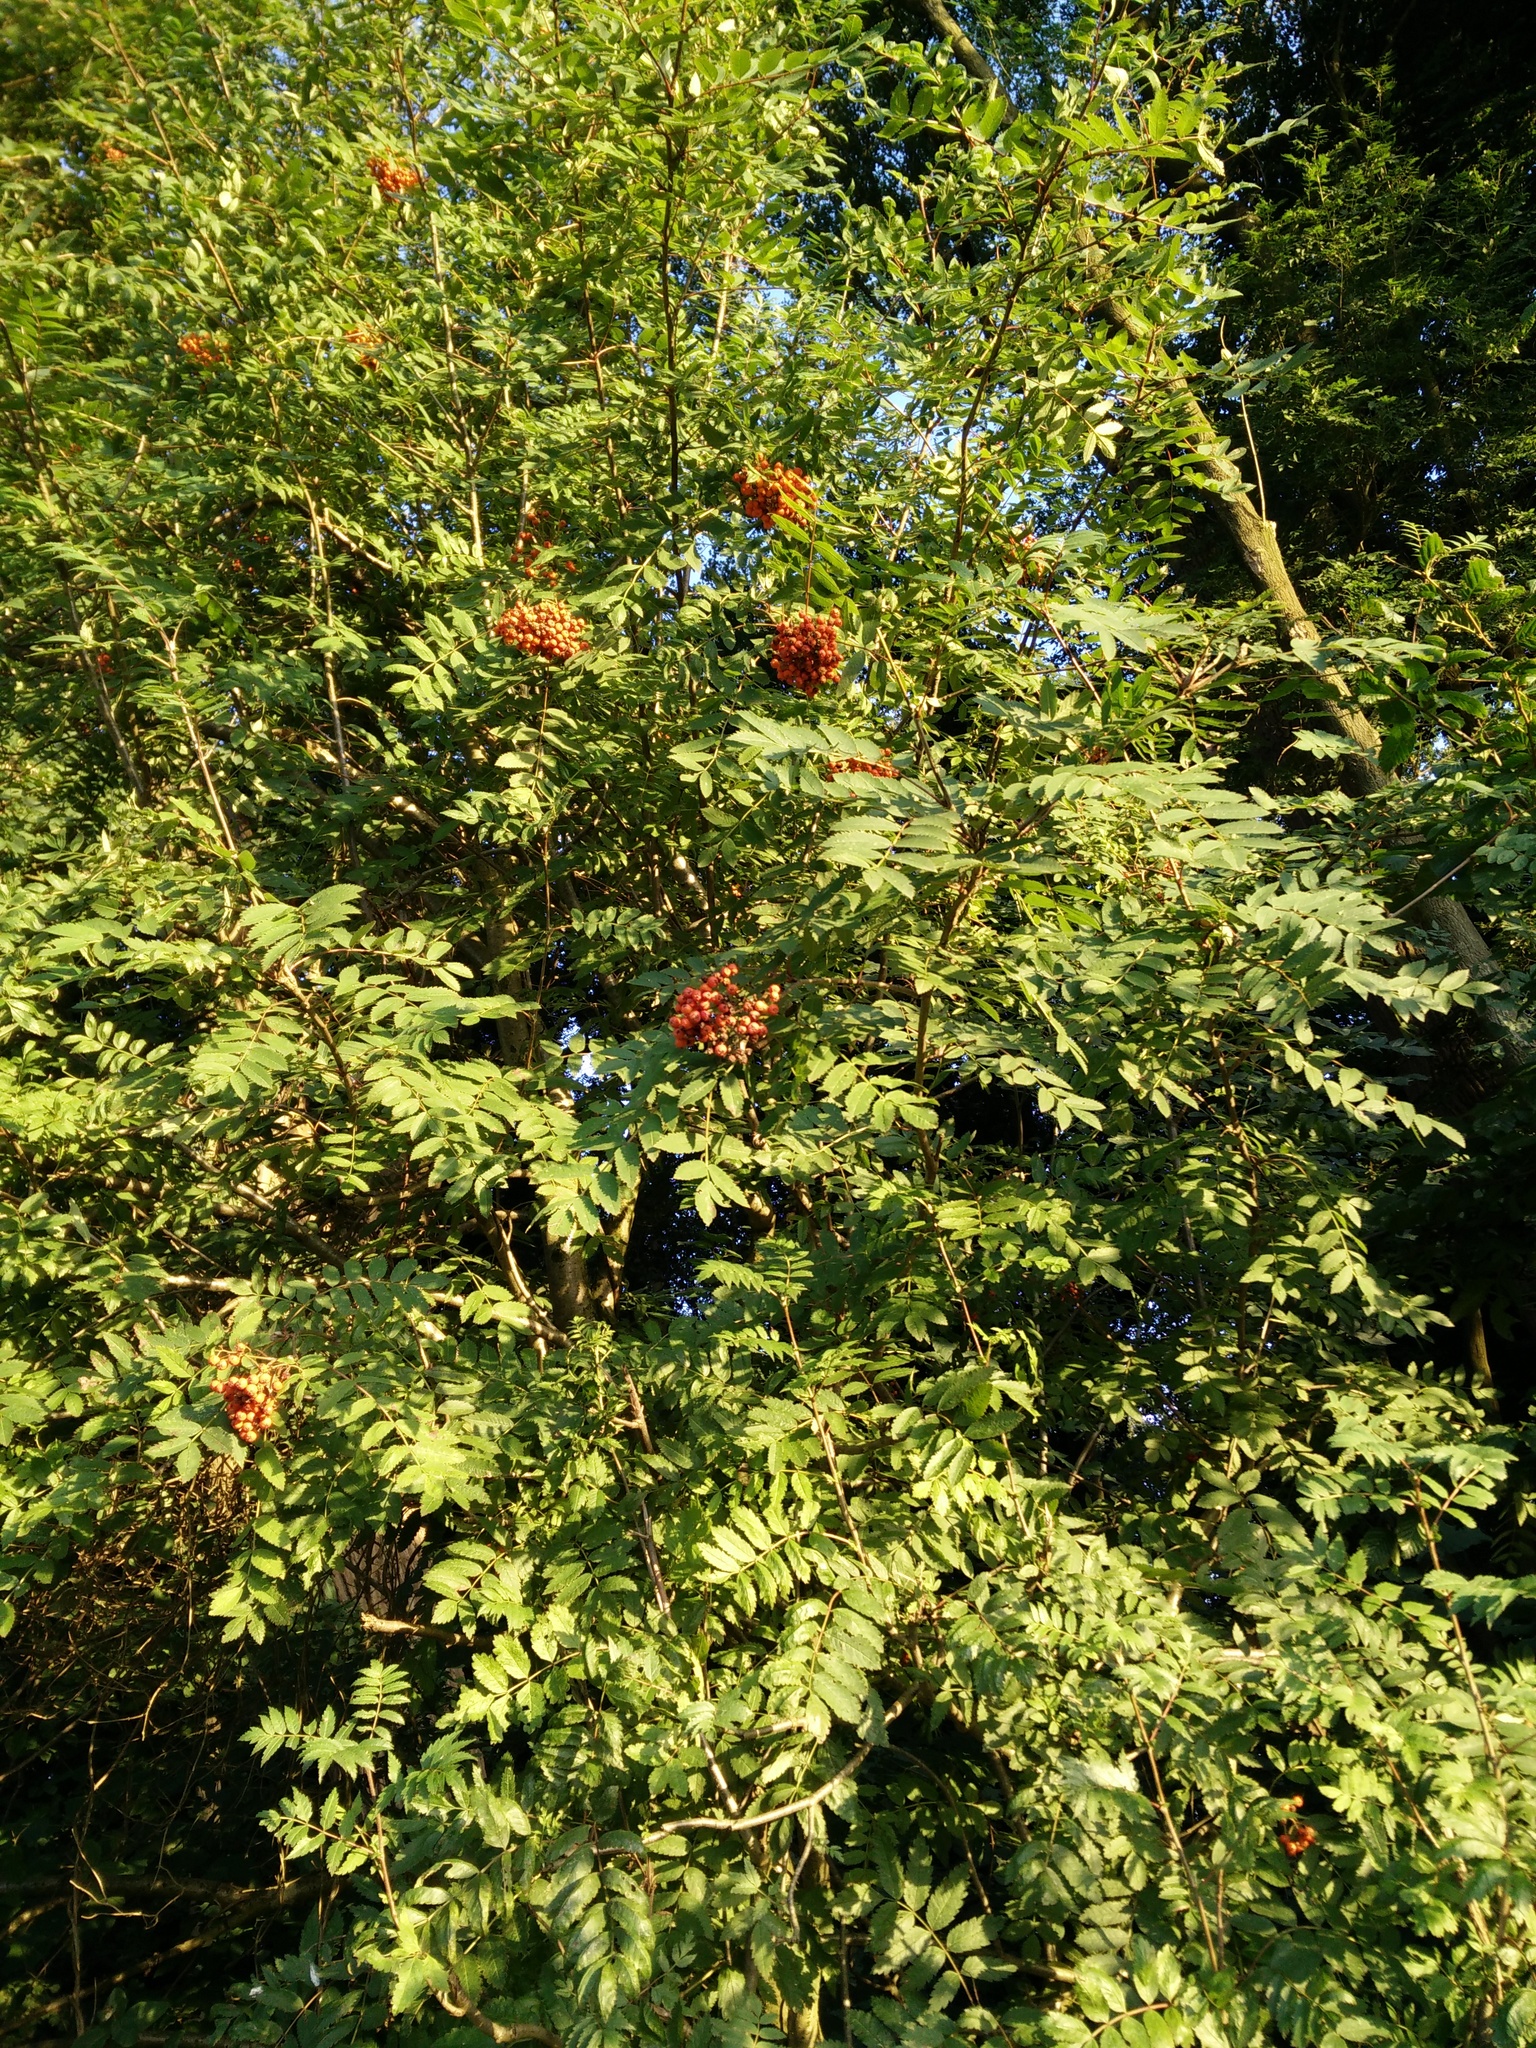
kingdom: Plantae
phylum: Tracheophyta
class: Magnoliopsida
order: Rosales
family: Rosaceae
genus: Sorbus
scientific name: Sorbus aucuparia
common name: Rowan
